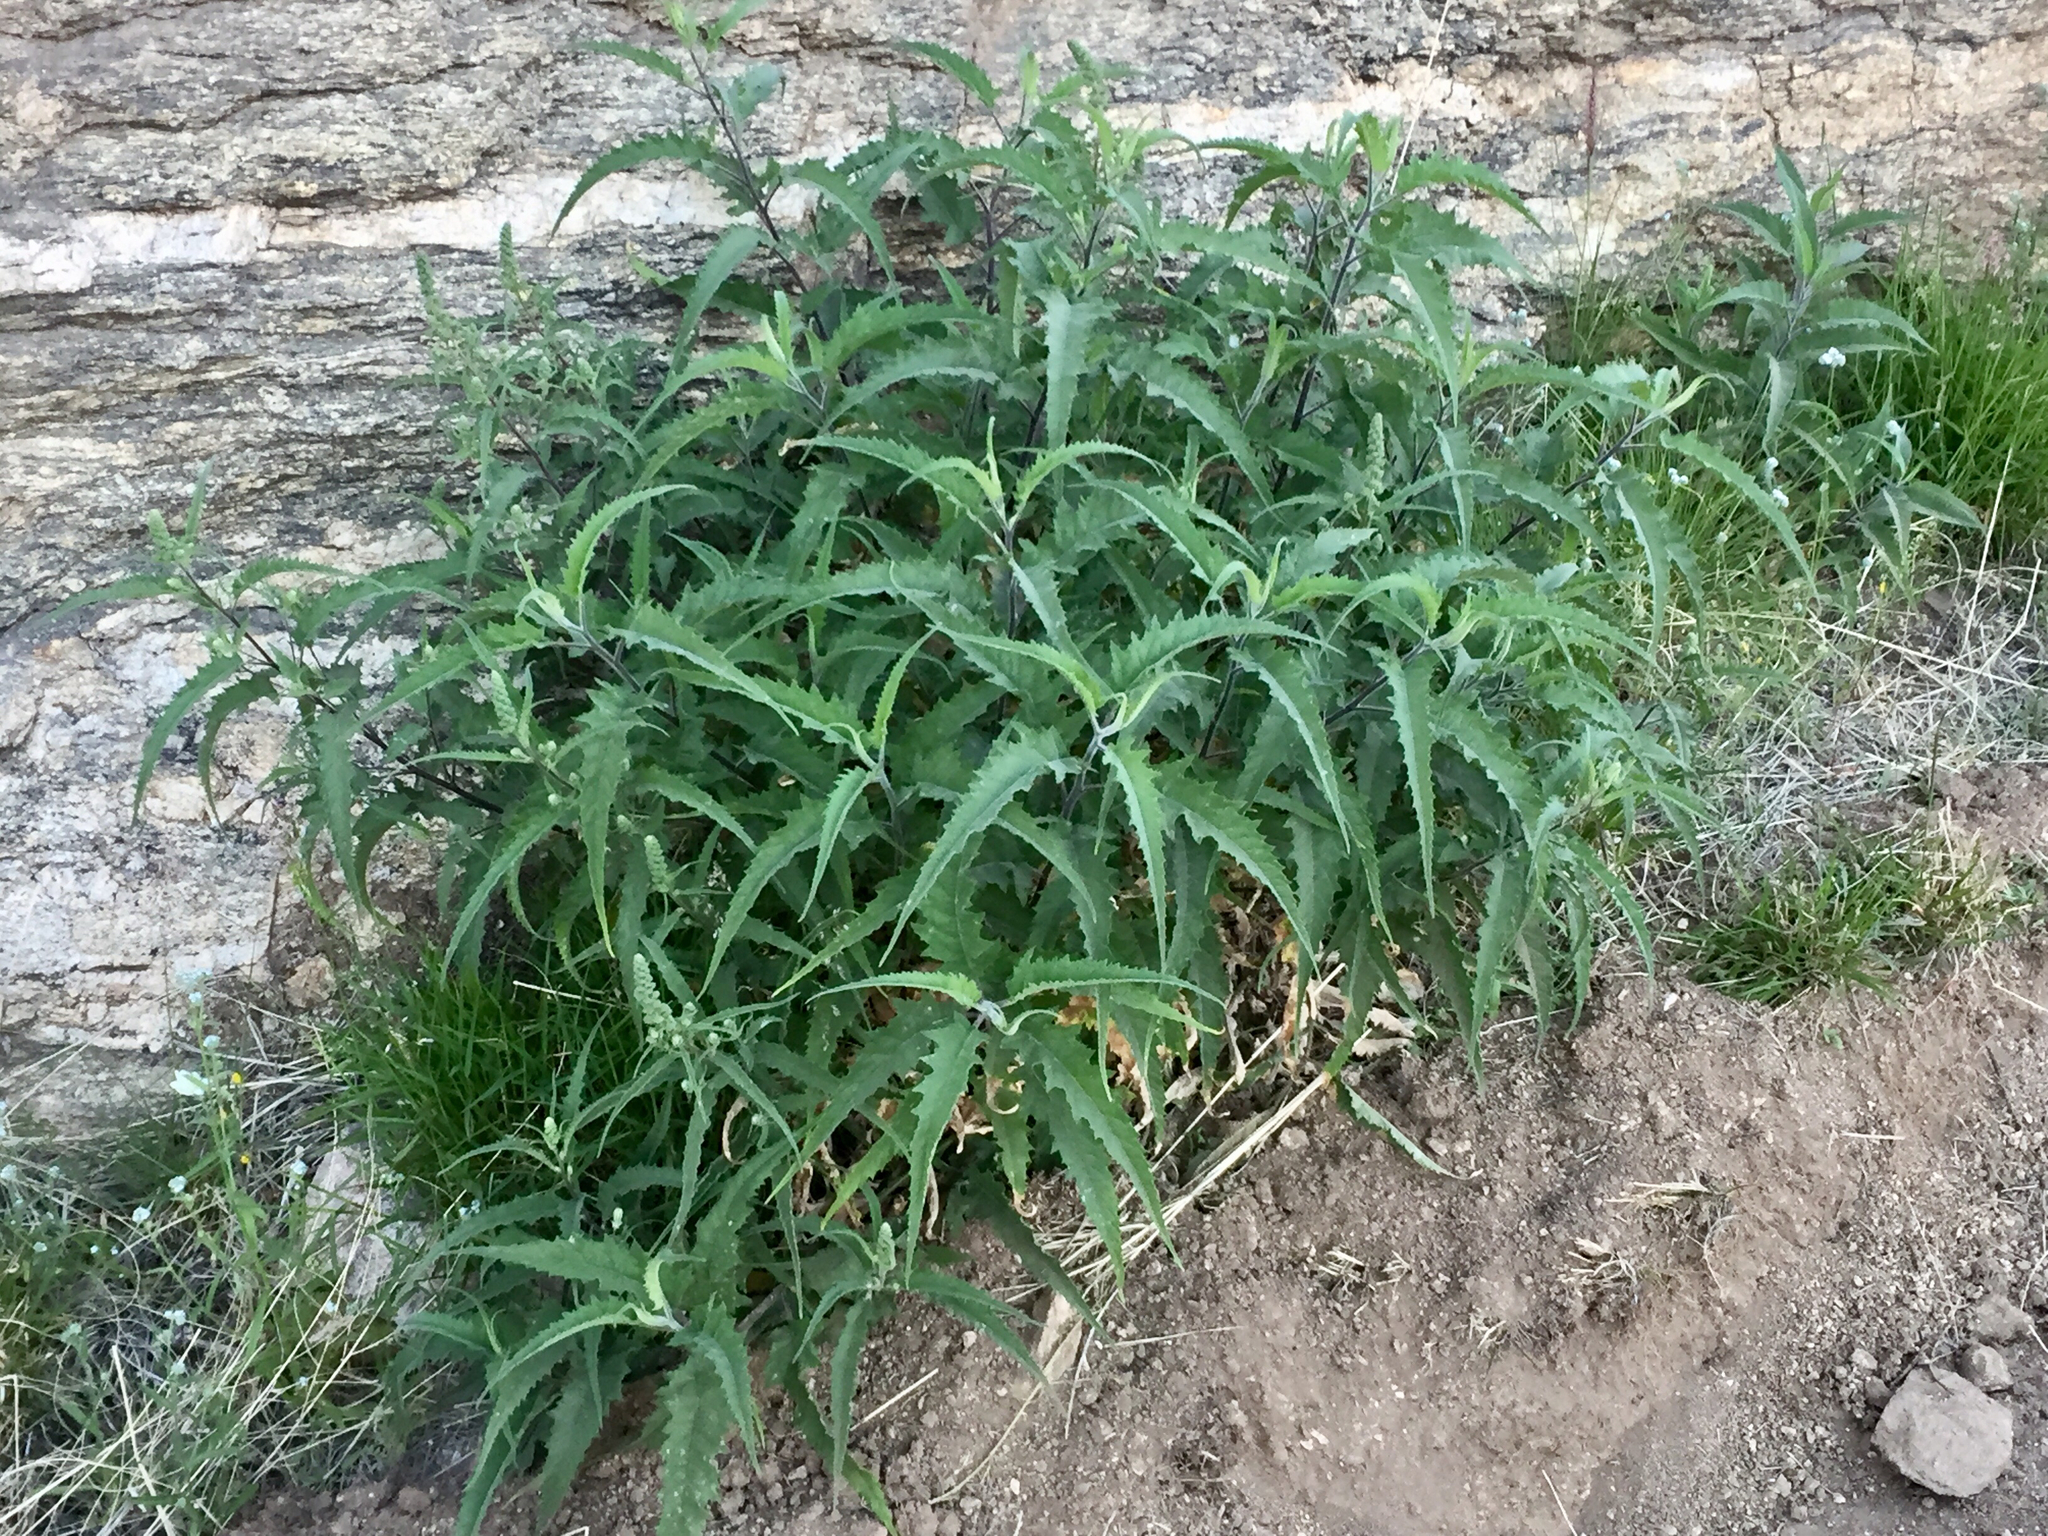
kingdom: Plantae
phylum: Tracheophyta
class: Magnoliopsida
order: Asterales
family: Asteraceae
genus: Ambrosia
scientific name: Ambrosia ambrosioides
